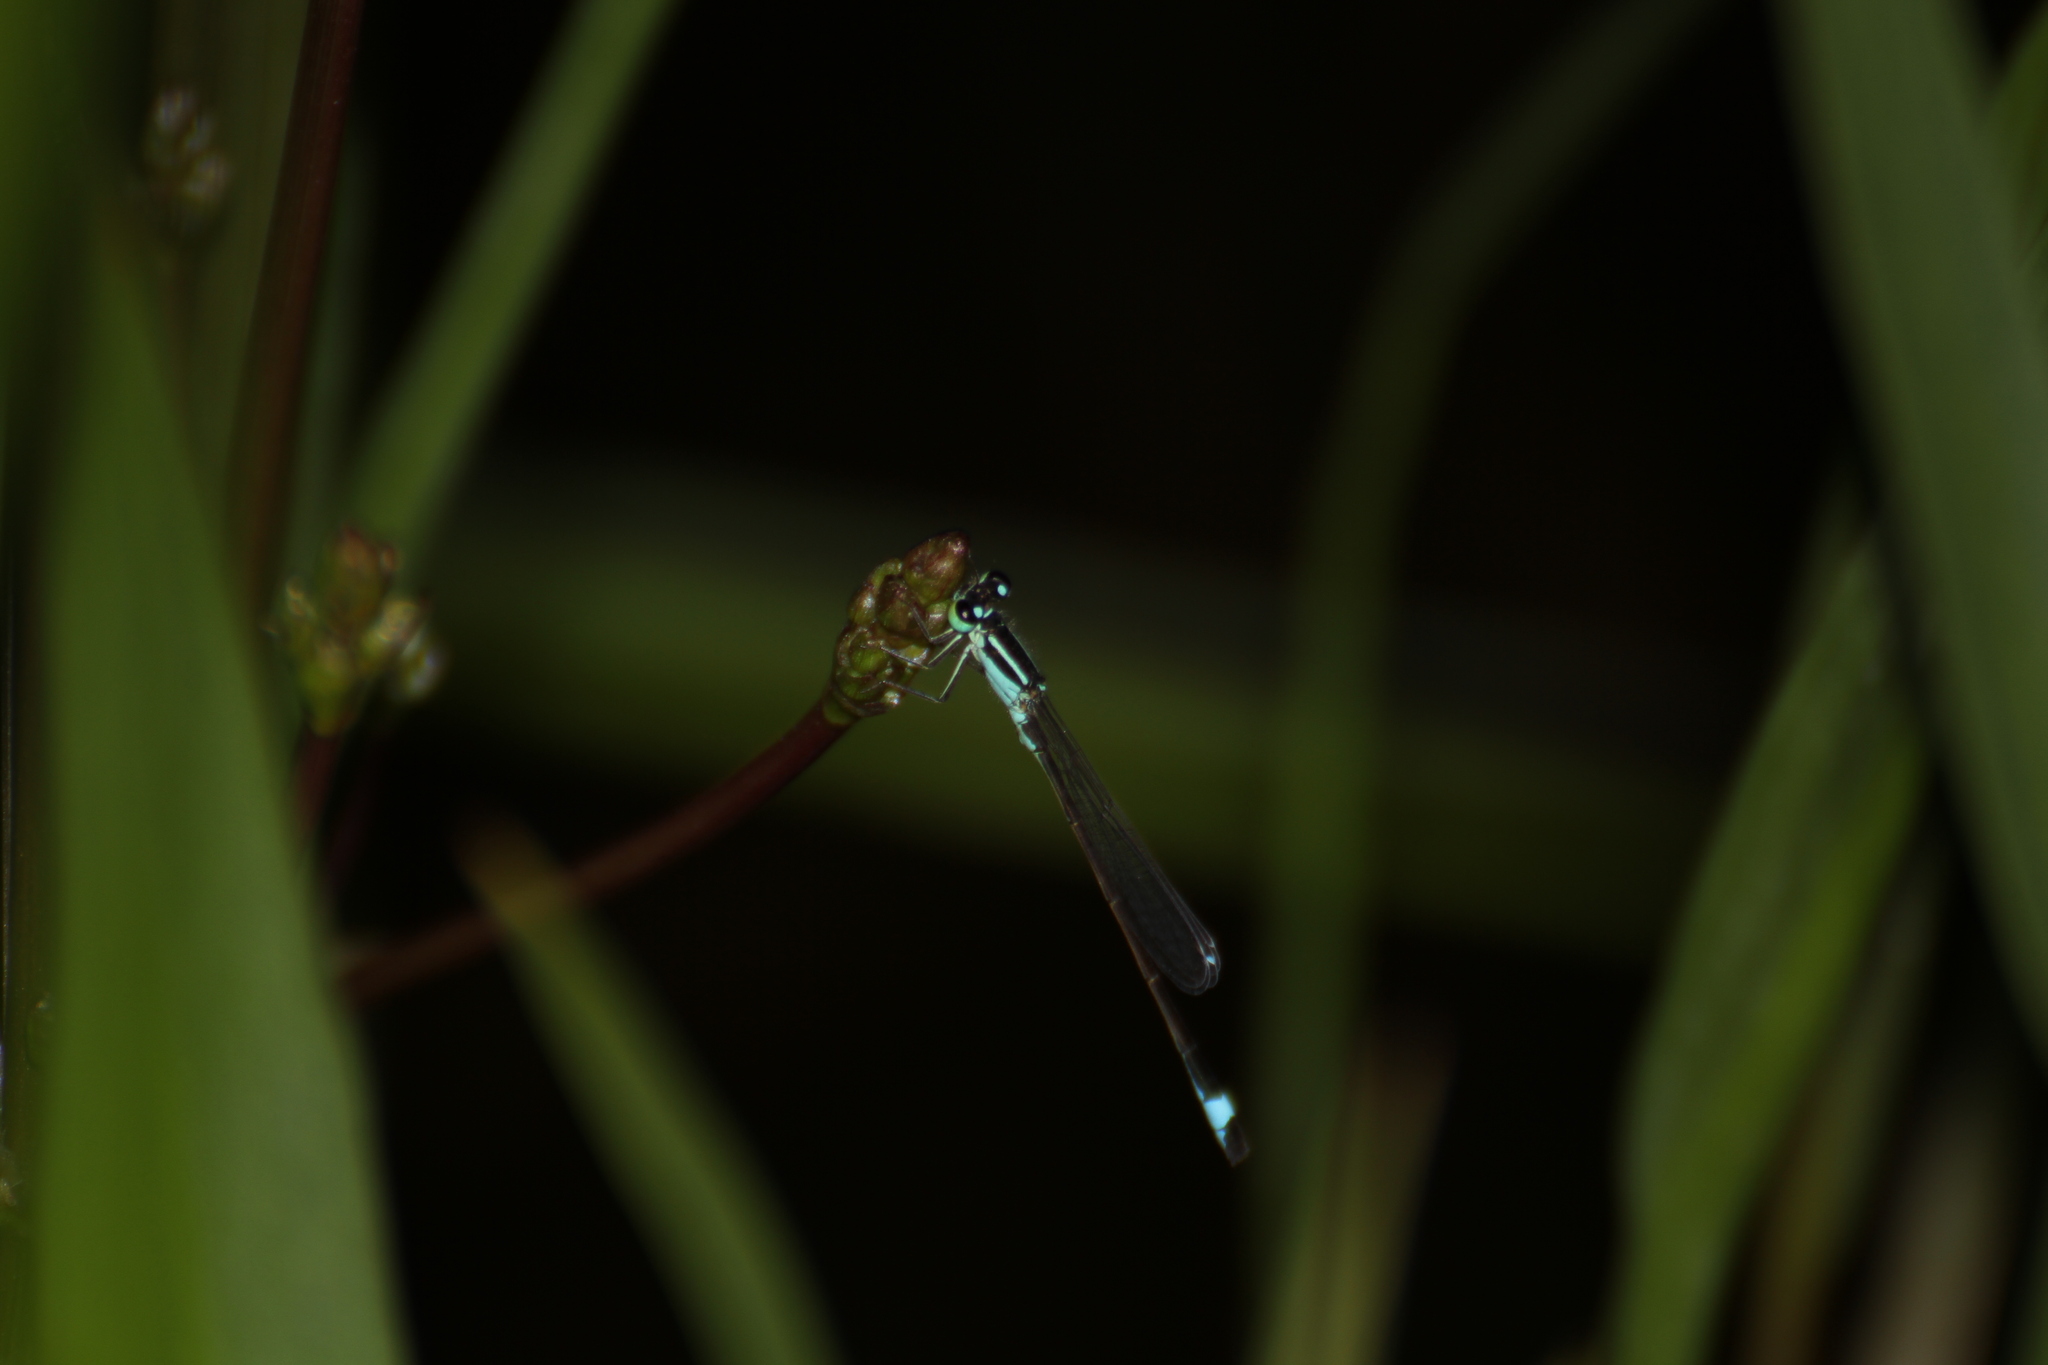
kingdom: Animalia
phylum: Arthropoda
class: Insecta
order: Odonata
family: Coenagrionidae
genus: Ischnura
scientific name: Ischnura elegans
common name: Blue-tailed damselfly
